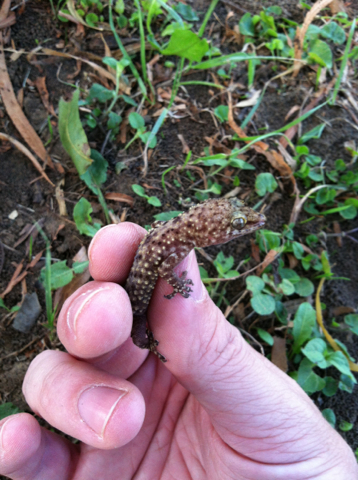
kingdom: Animalia
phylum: Chordata
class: Squamata
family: Gekkonidae
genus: Hemidactylus
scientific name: Hemidactylus turcicus
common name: Turkish gecko
